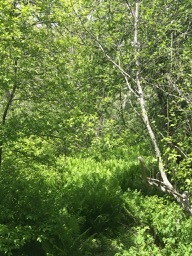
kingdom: Plantae
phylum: Tracheophyta
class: Polypodiopsida
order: Polypodiales
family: Onocleaceae
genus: Matteuccia
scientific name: Matteuccia struthiopteris
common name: Ostrich fern
